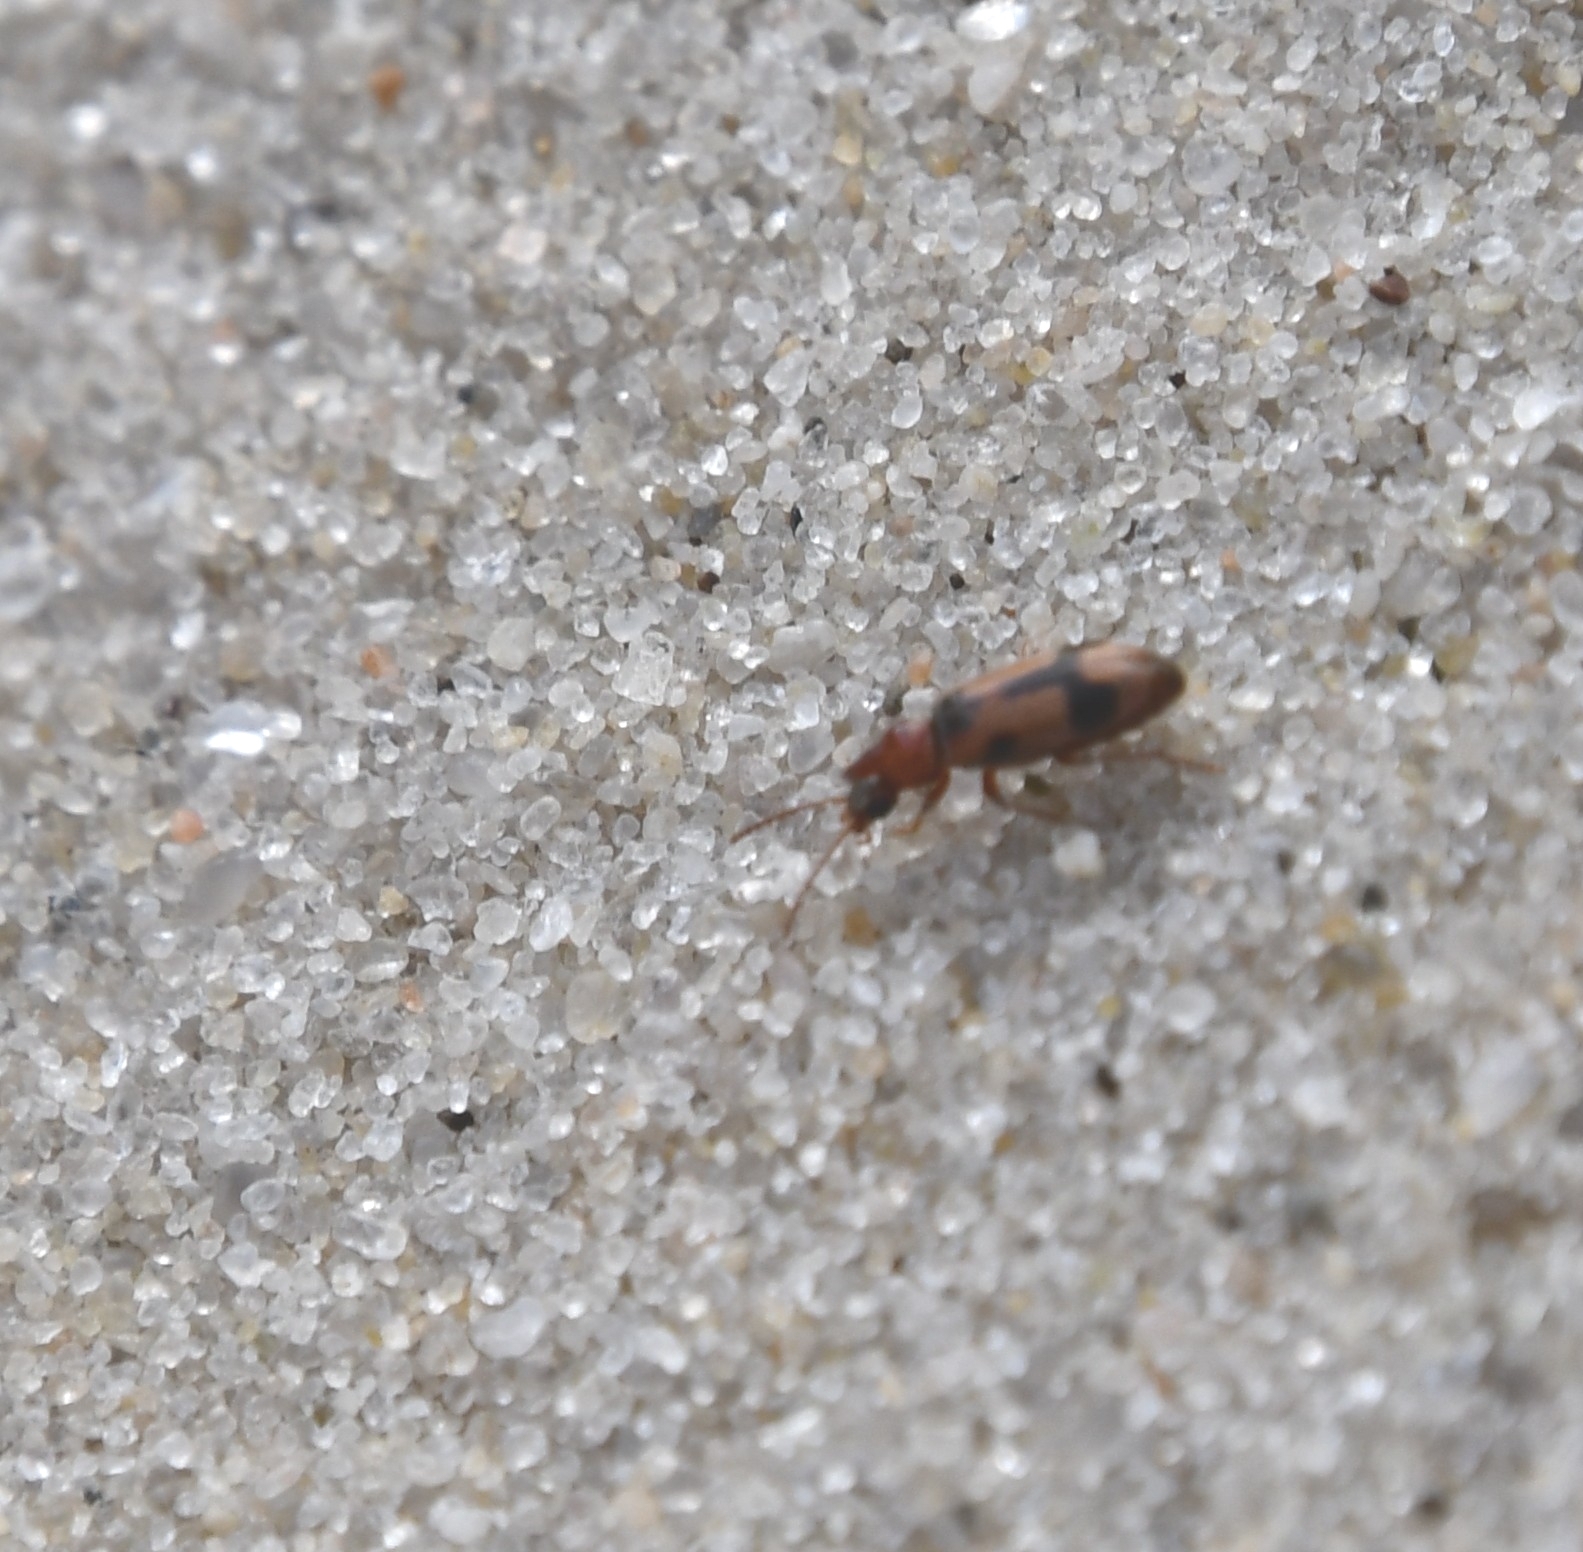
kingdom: Animalia
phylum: Arthropoda
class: Insecta
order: Coleoptera
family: Anthicidae
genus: Notoxus
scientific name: Notoxus monoceros
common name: Monoceros beetle
